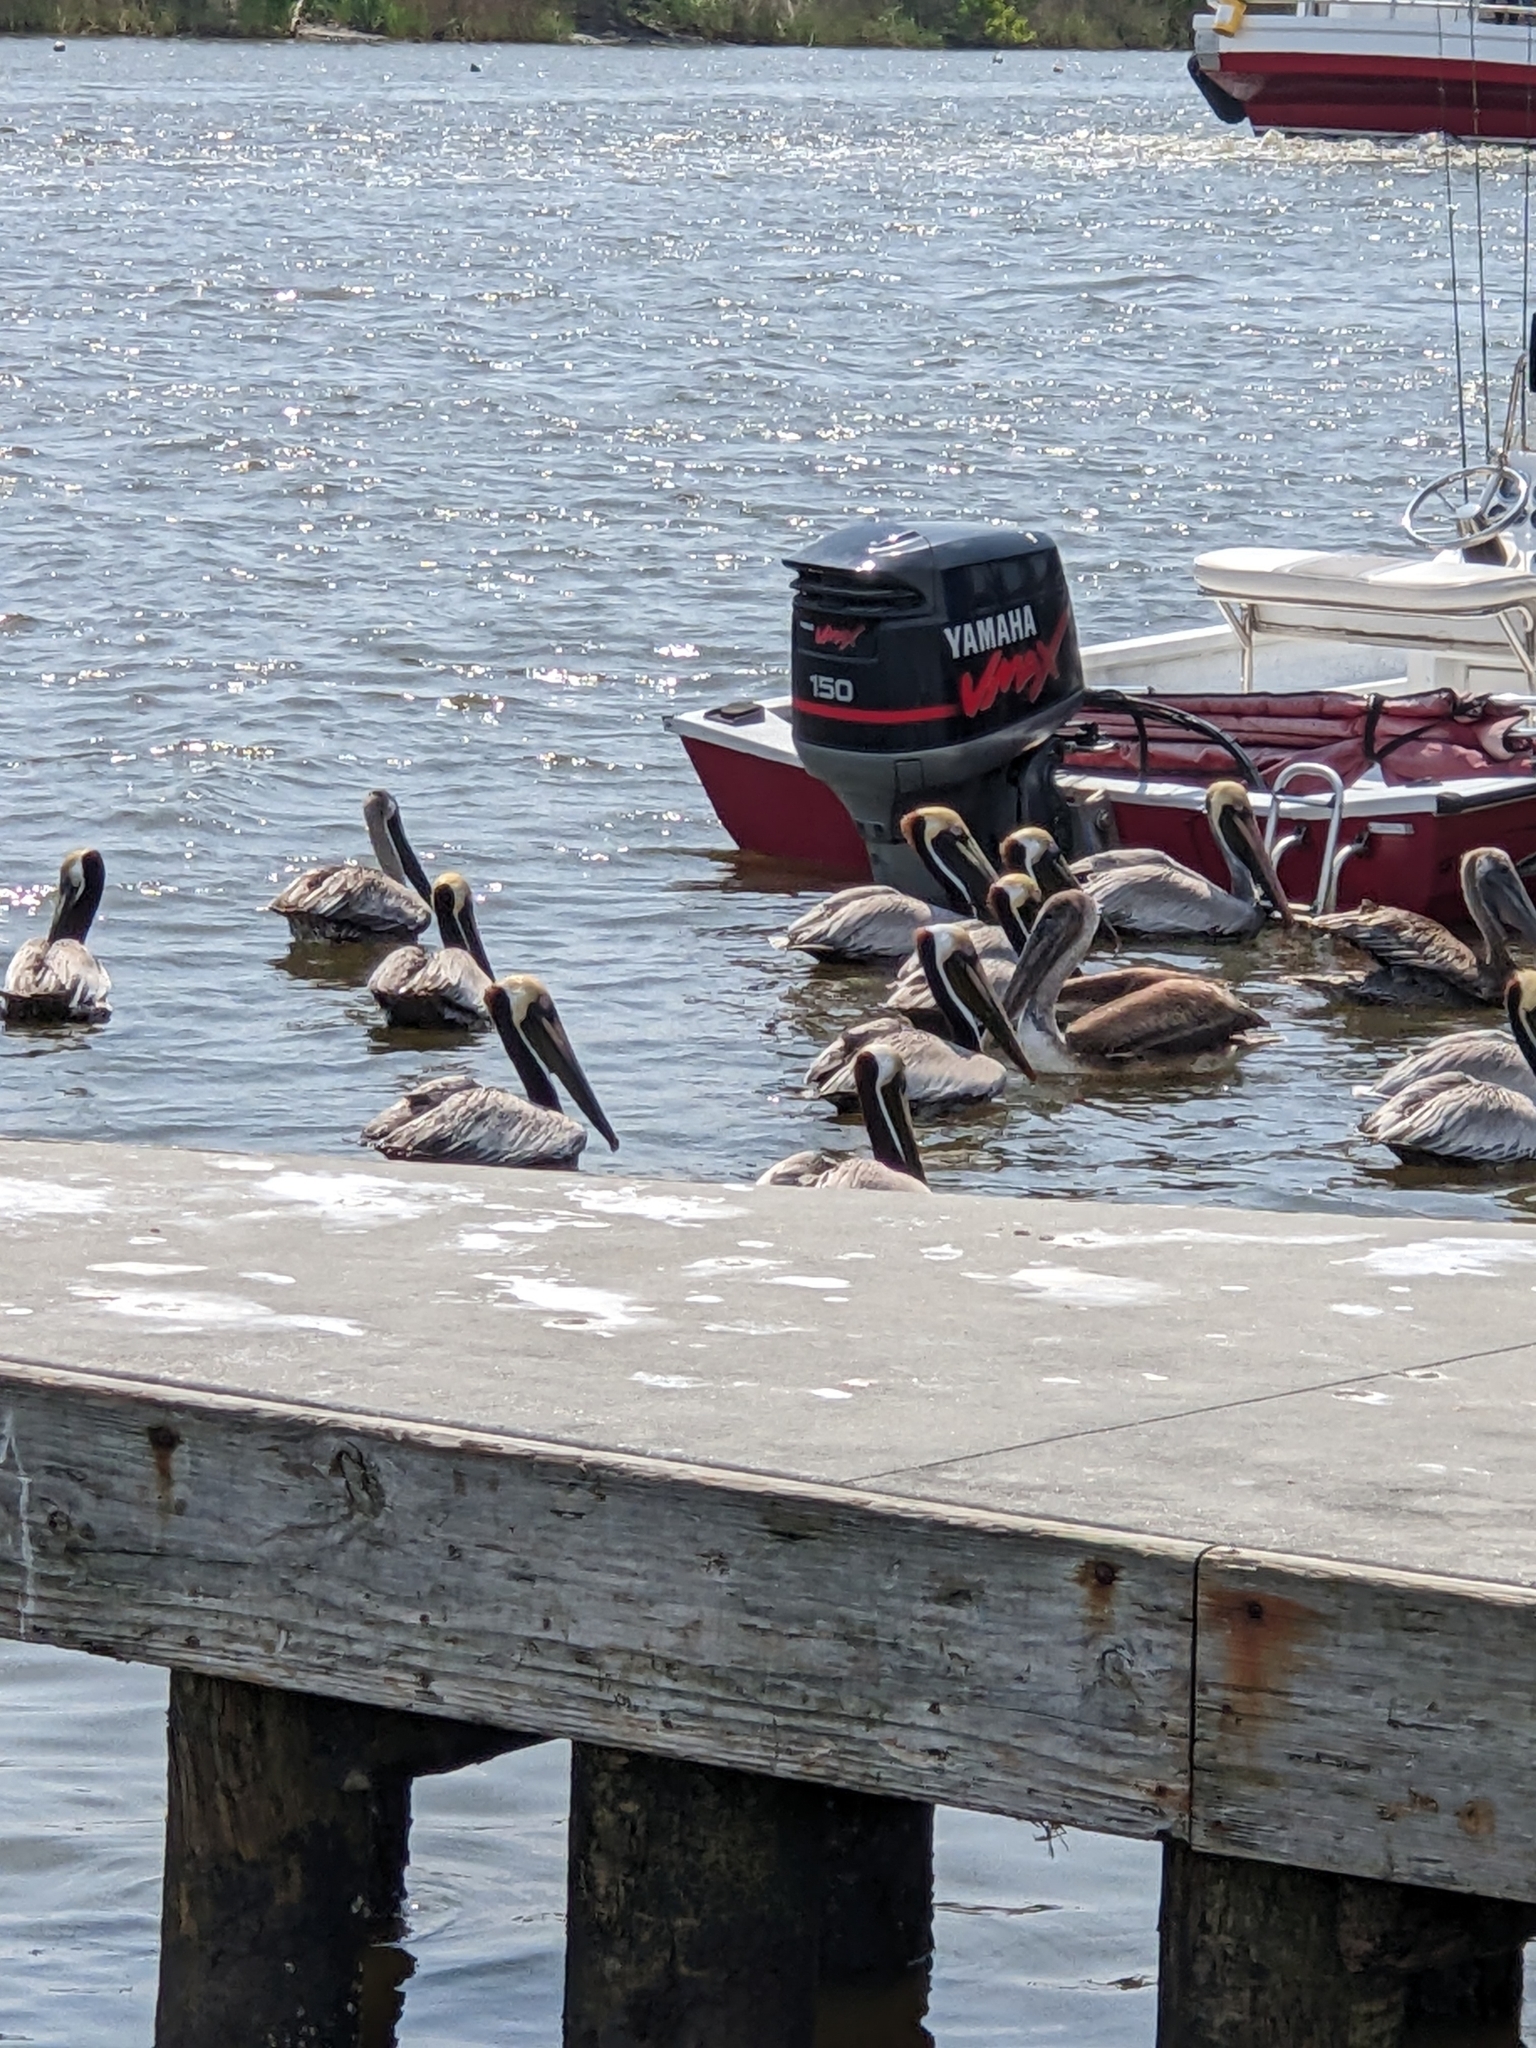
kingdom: Animalia
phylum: Chordata
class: Aves
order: Pelecaniformes
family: Pelecanidae
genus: Pelecanus
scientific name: Pelecanus occidentalis
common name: Brown pelican
